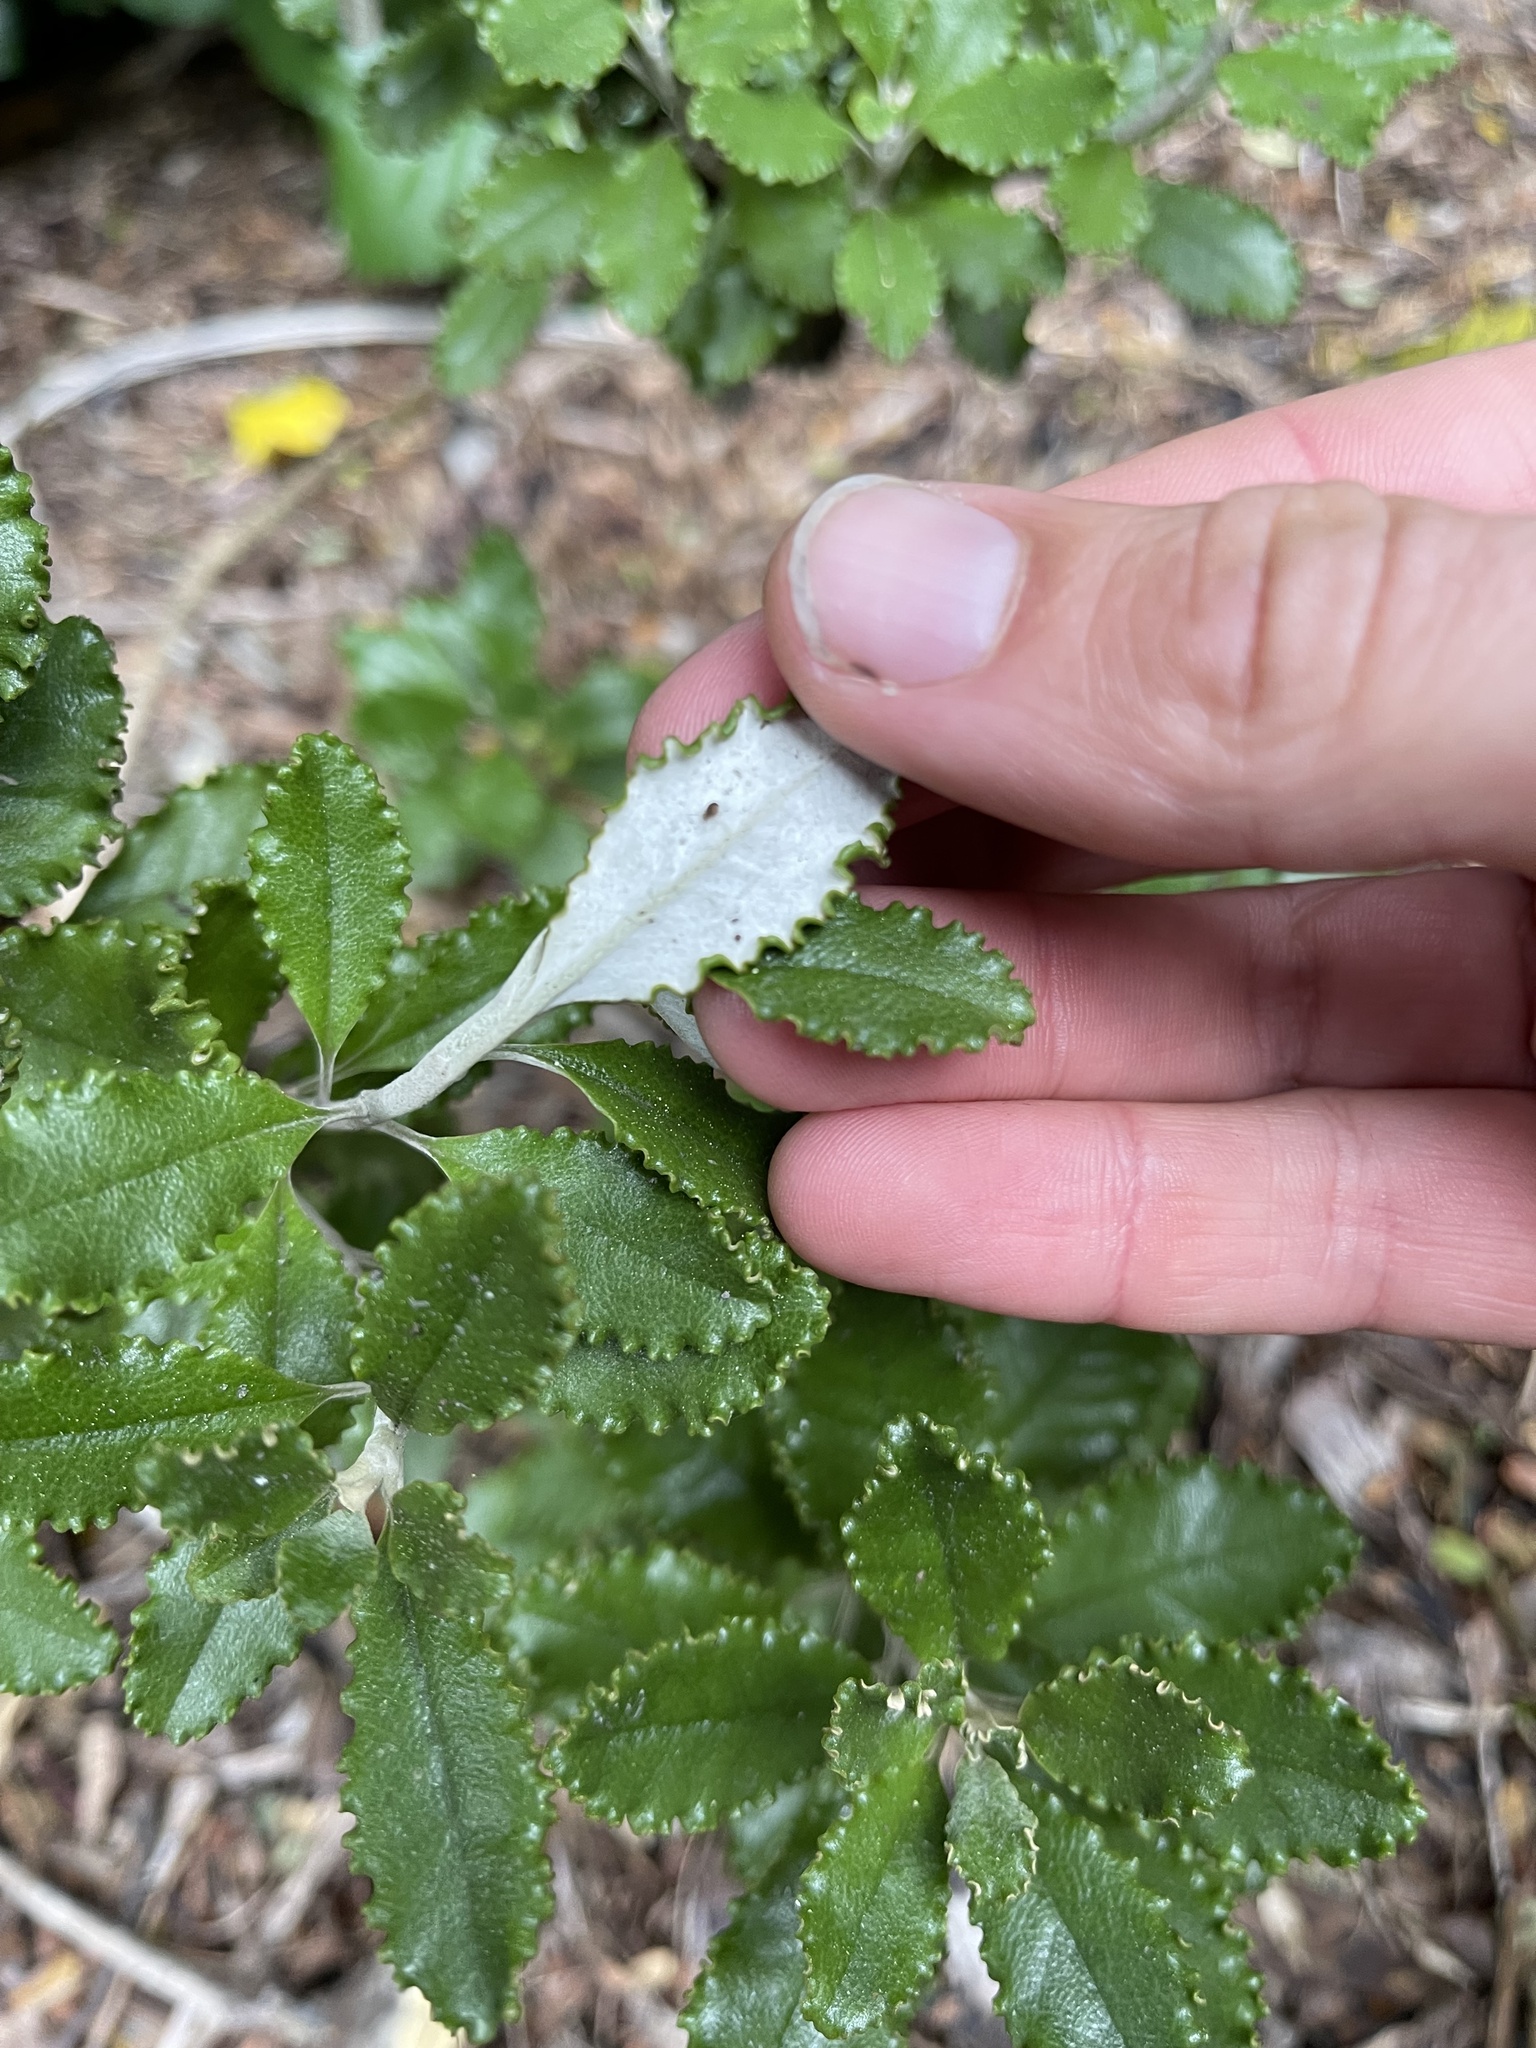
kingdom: Plantae
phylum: Tracheophyta
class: Magnoliopsida
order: Asterales
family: Asteraceae
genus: Macrolearia
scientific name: Macrolearia colensoi
